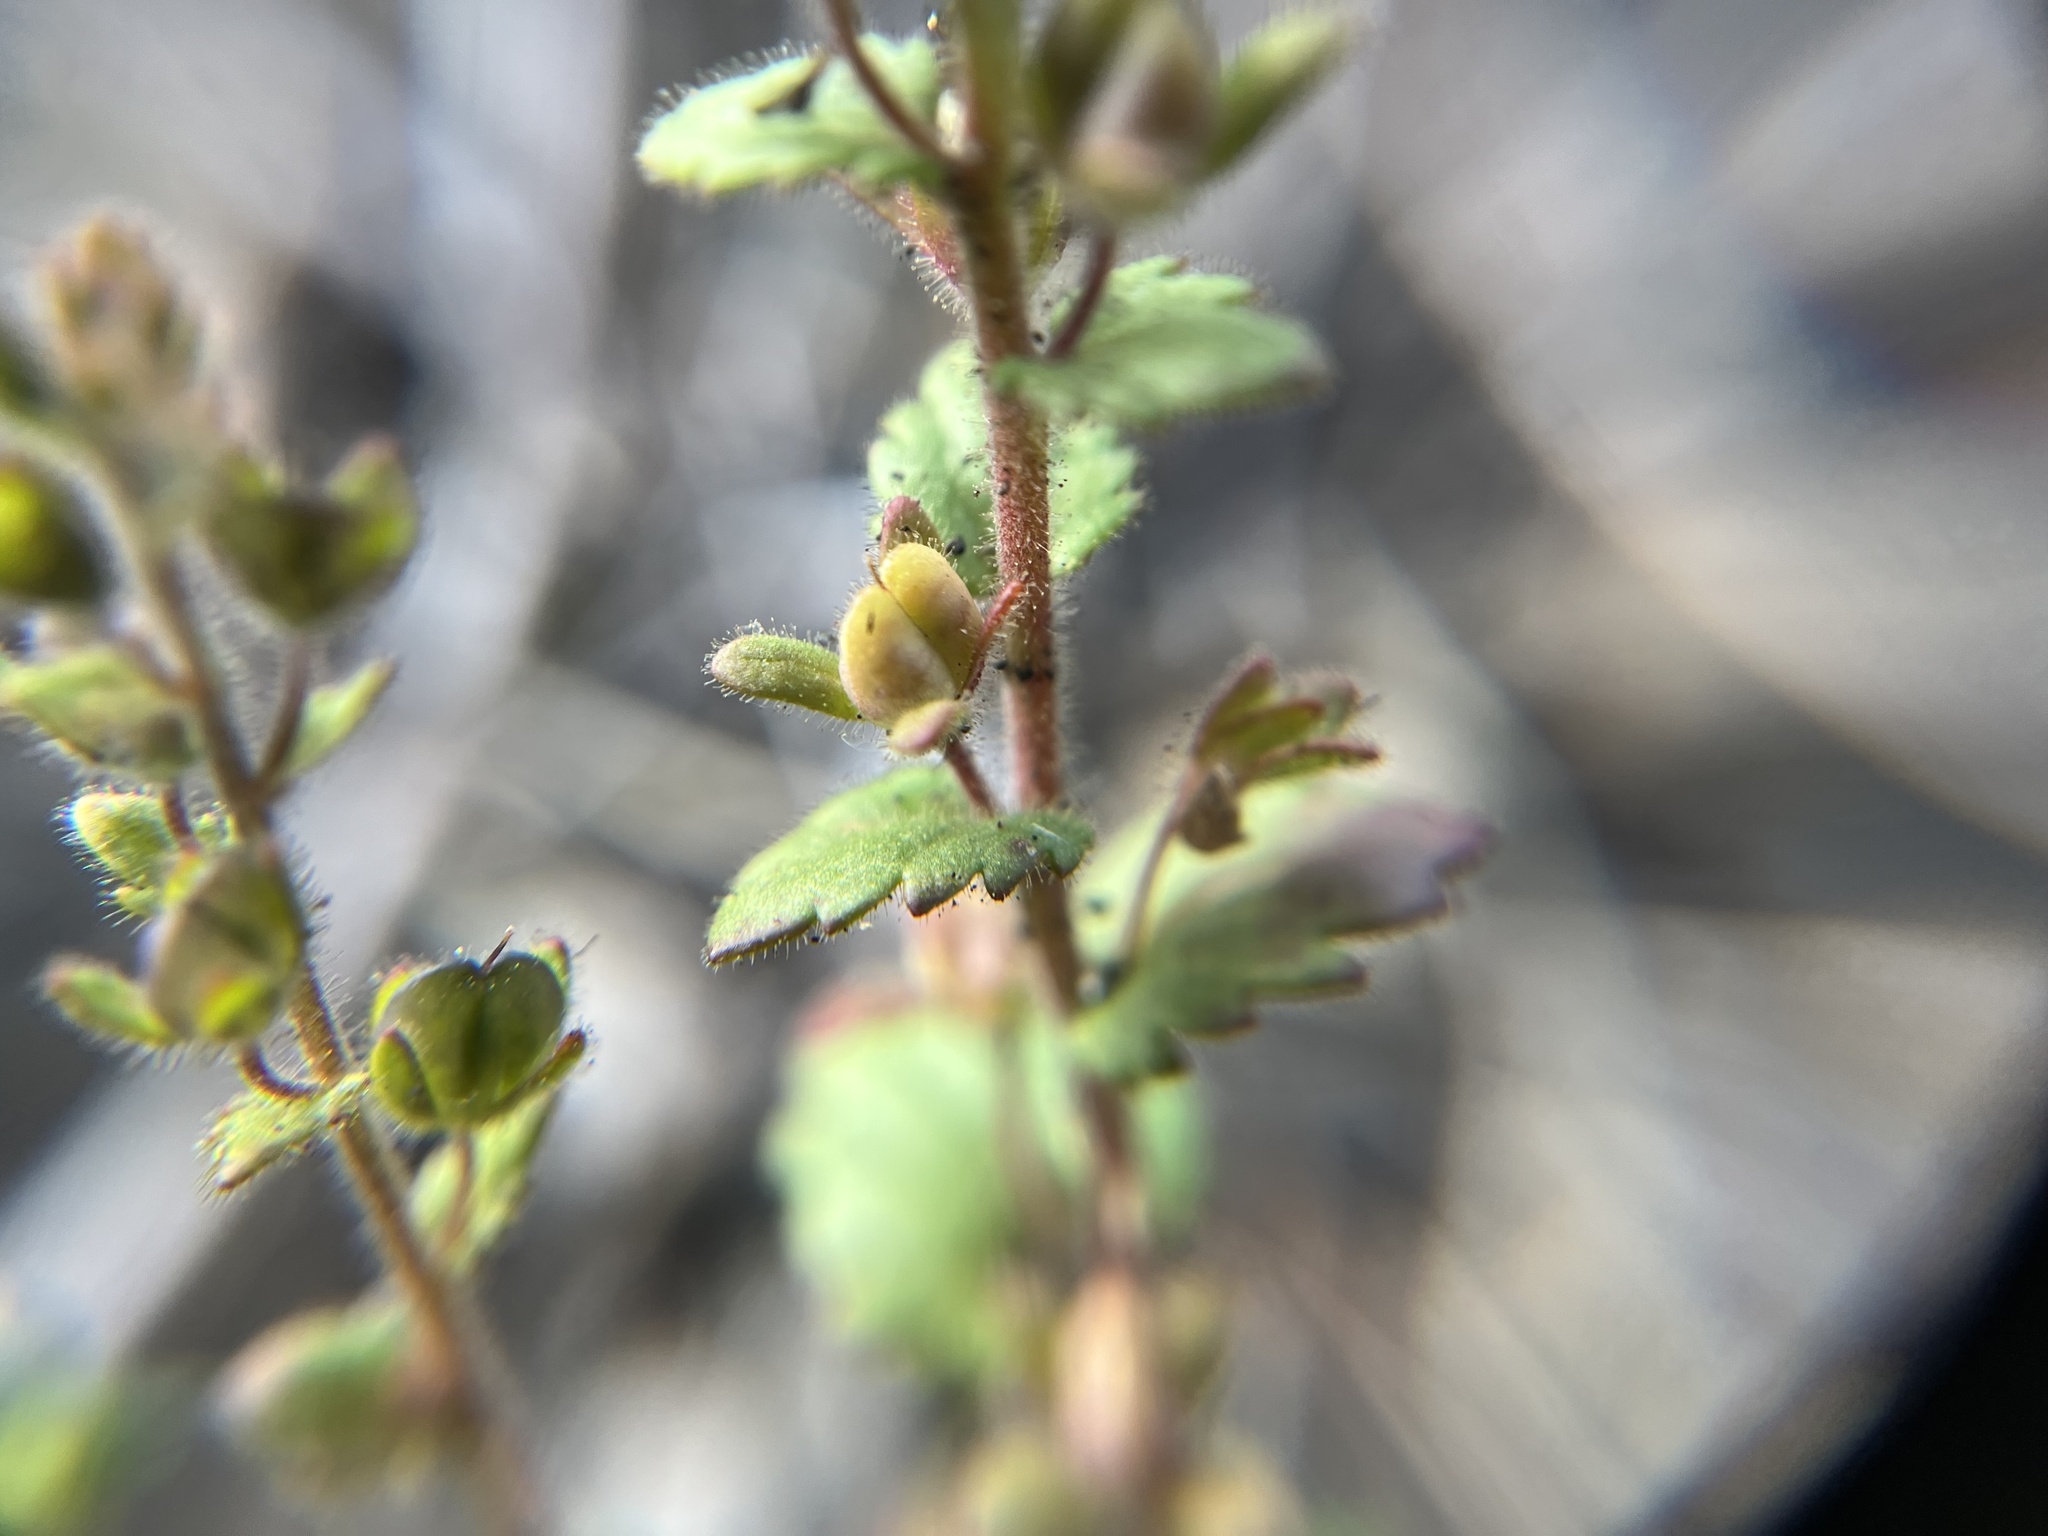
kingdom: Plantae
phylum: Tracheophyta
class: Magnoliopsida
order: Lamiales
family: Plantaginaceae
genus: Veronica
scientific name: Veronica praecox
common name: Breckland speedwell
